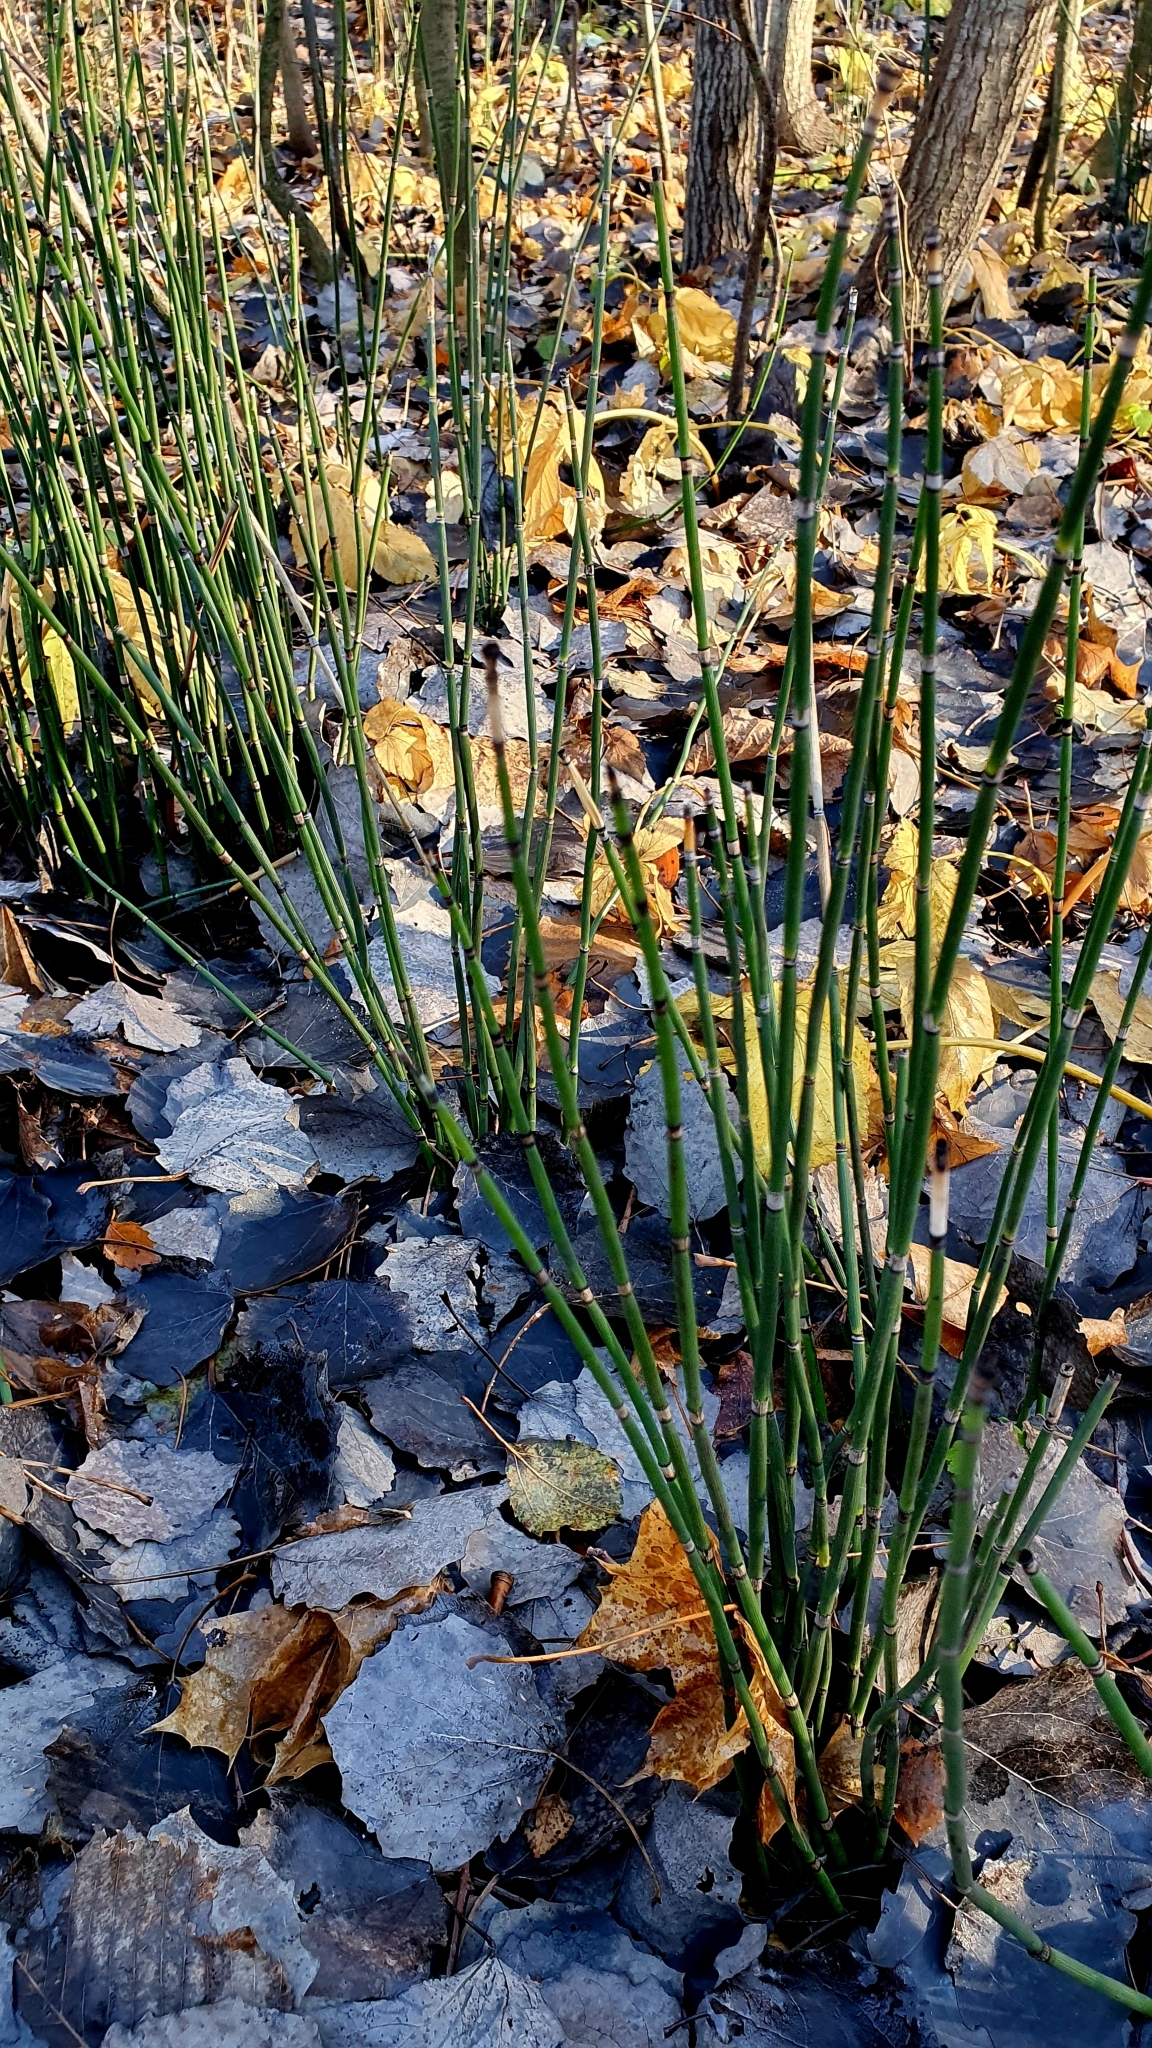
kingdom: Plantae
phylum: Tracheophyta
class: Polypodiopsida
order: Equisetales
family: Equisetaceae
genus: Equisetum
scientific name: Equisetum hyemale
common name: Rough horsetail
